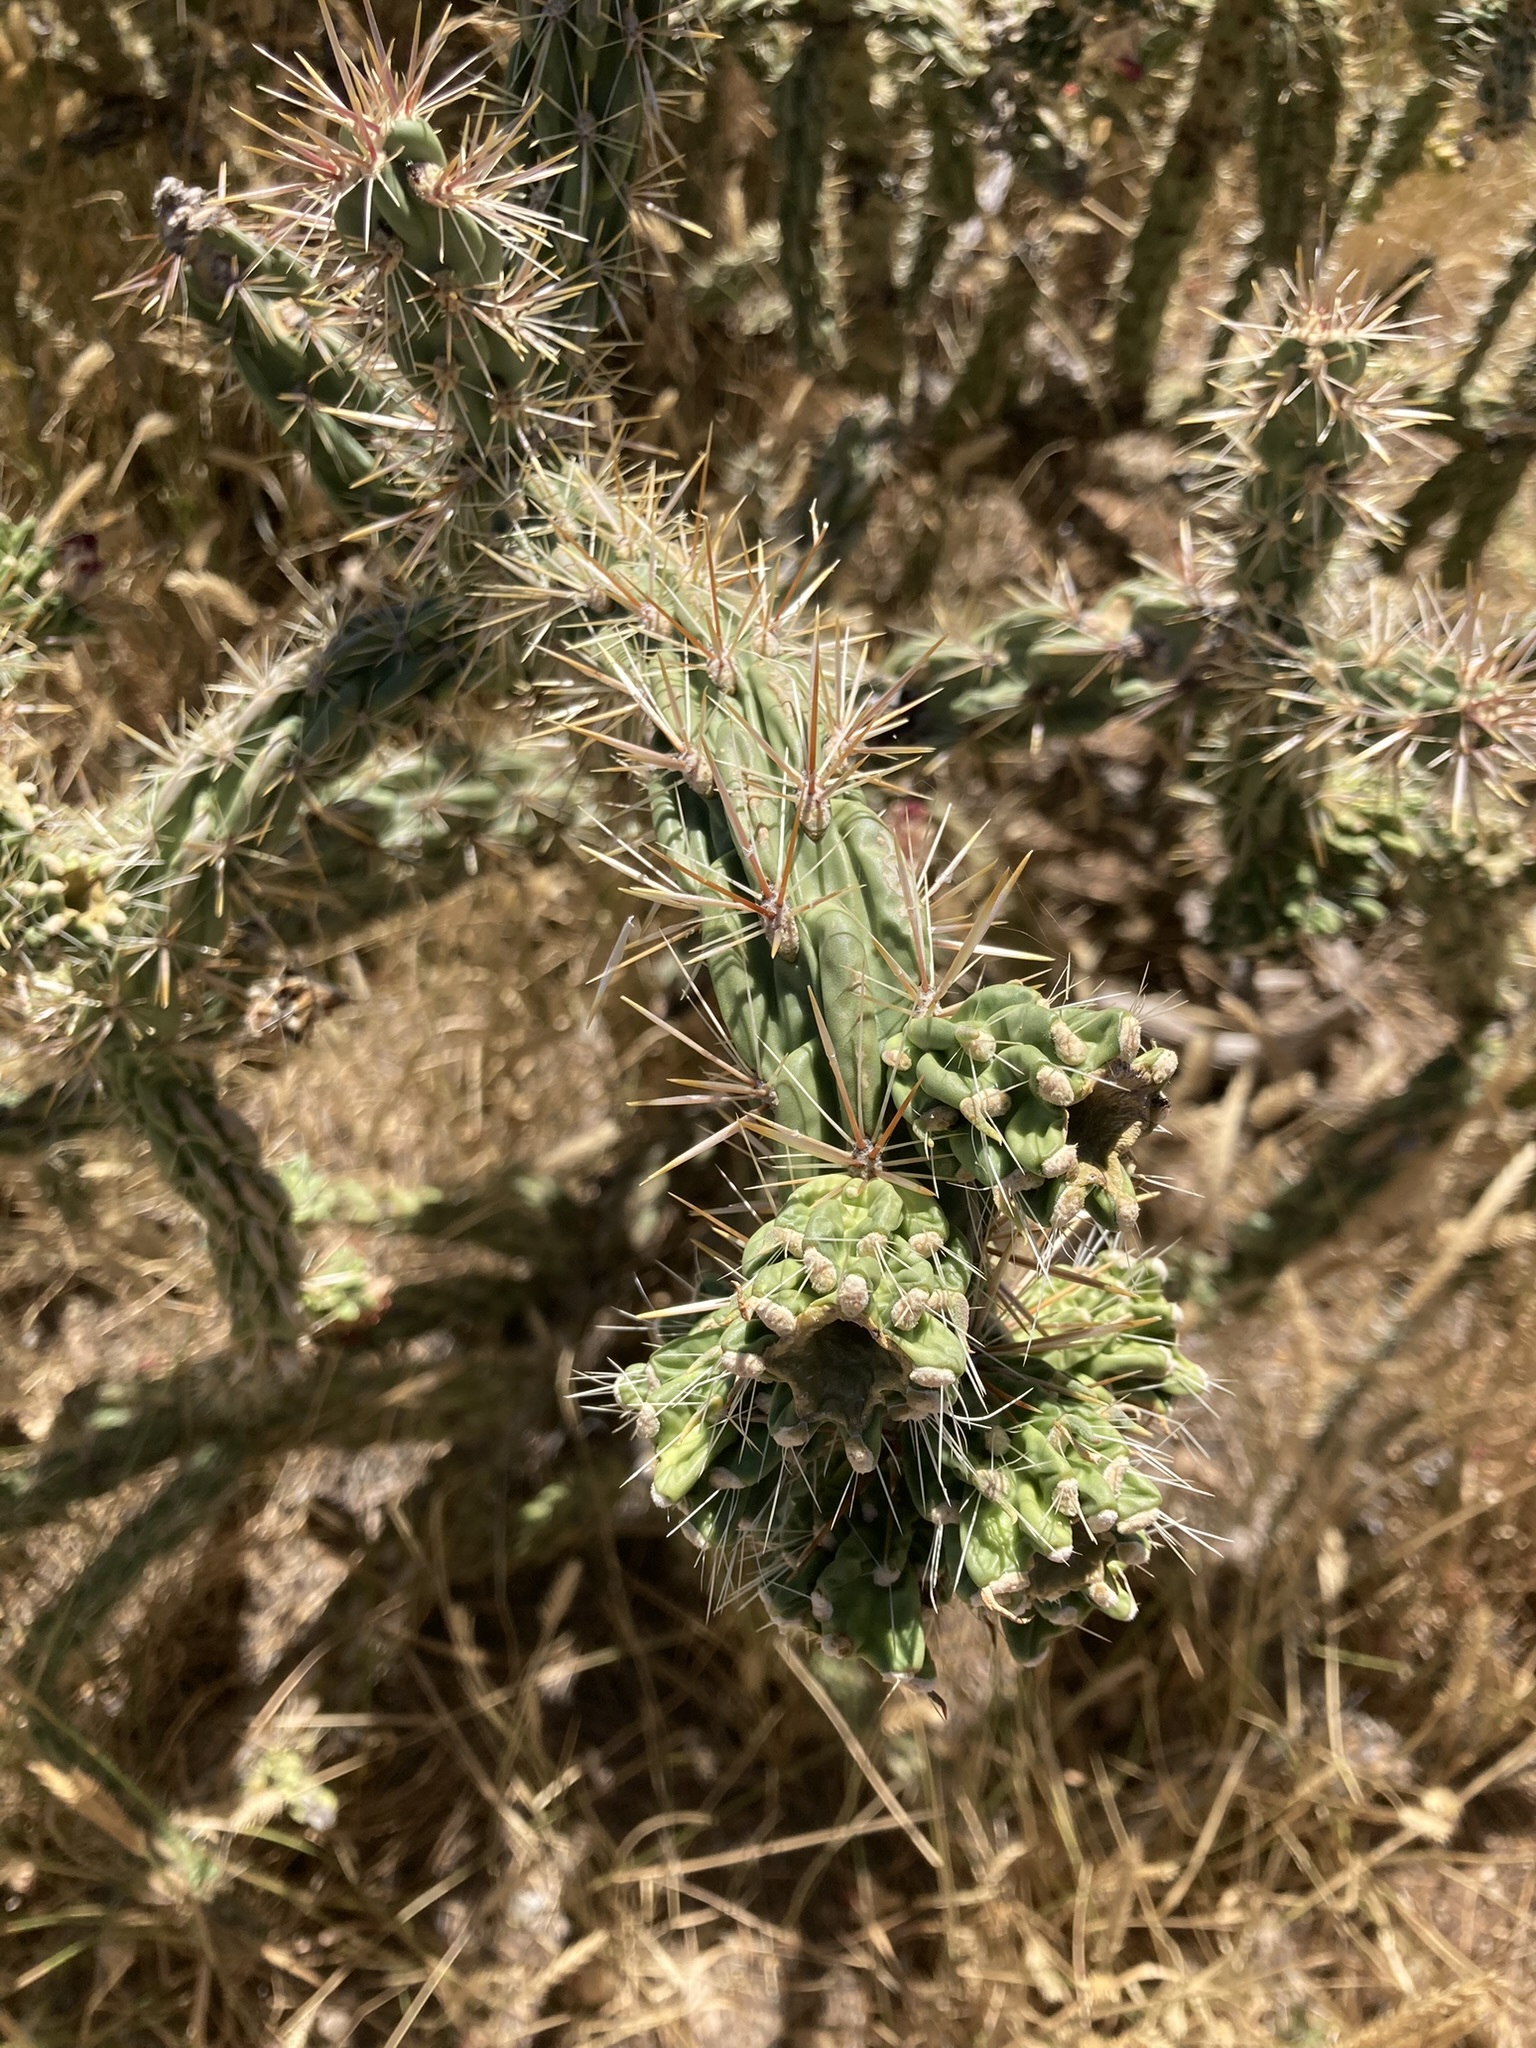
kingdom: Plantae
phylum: Tracheophyta
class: Magnoliopsida
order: Caryophyllales
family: Cactaceae
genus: Cylindropuntia
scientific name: Cylindropuntia imbricata
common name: Candelabrum cactus
